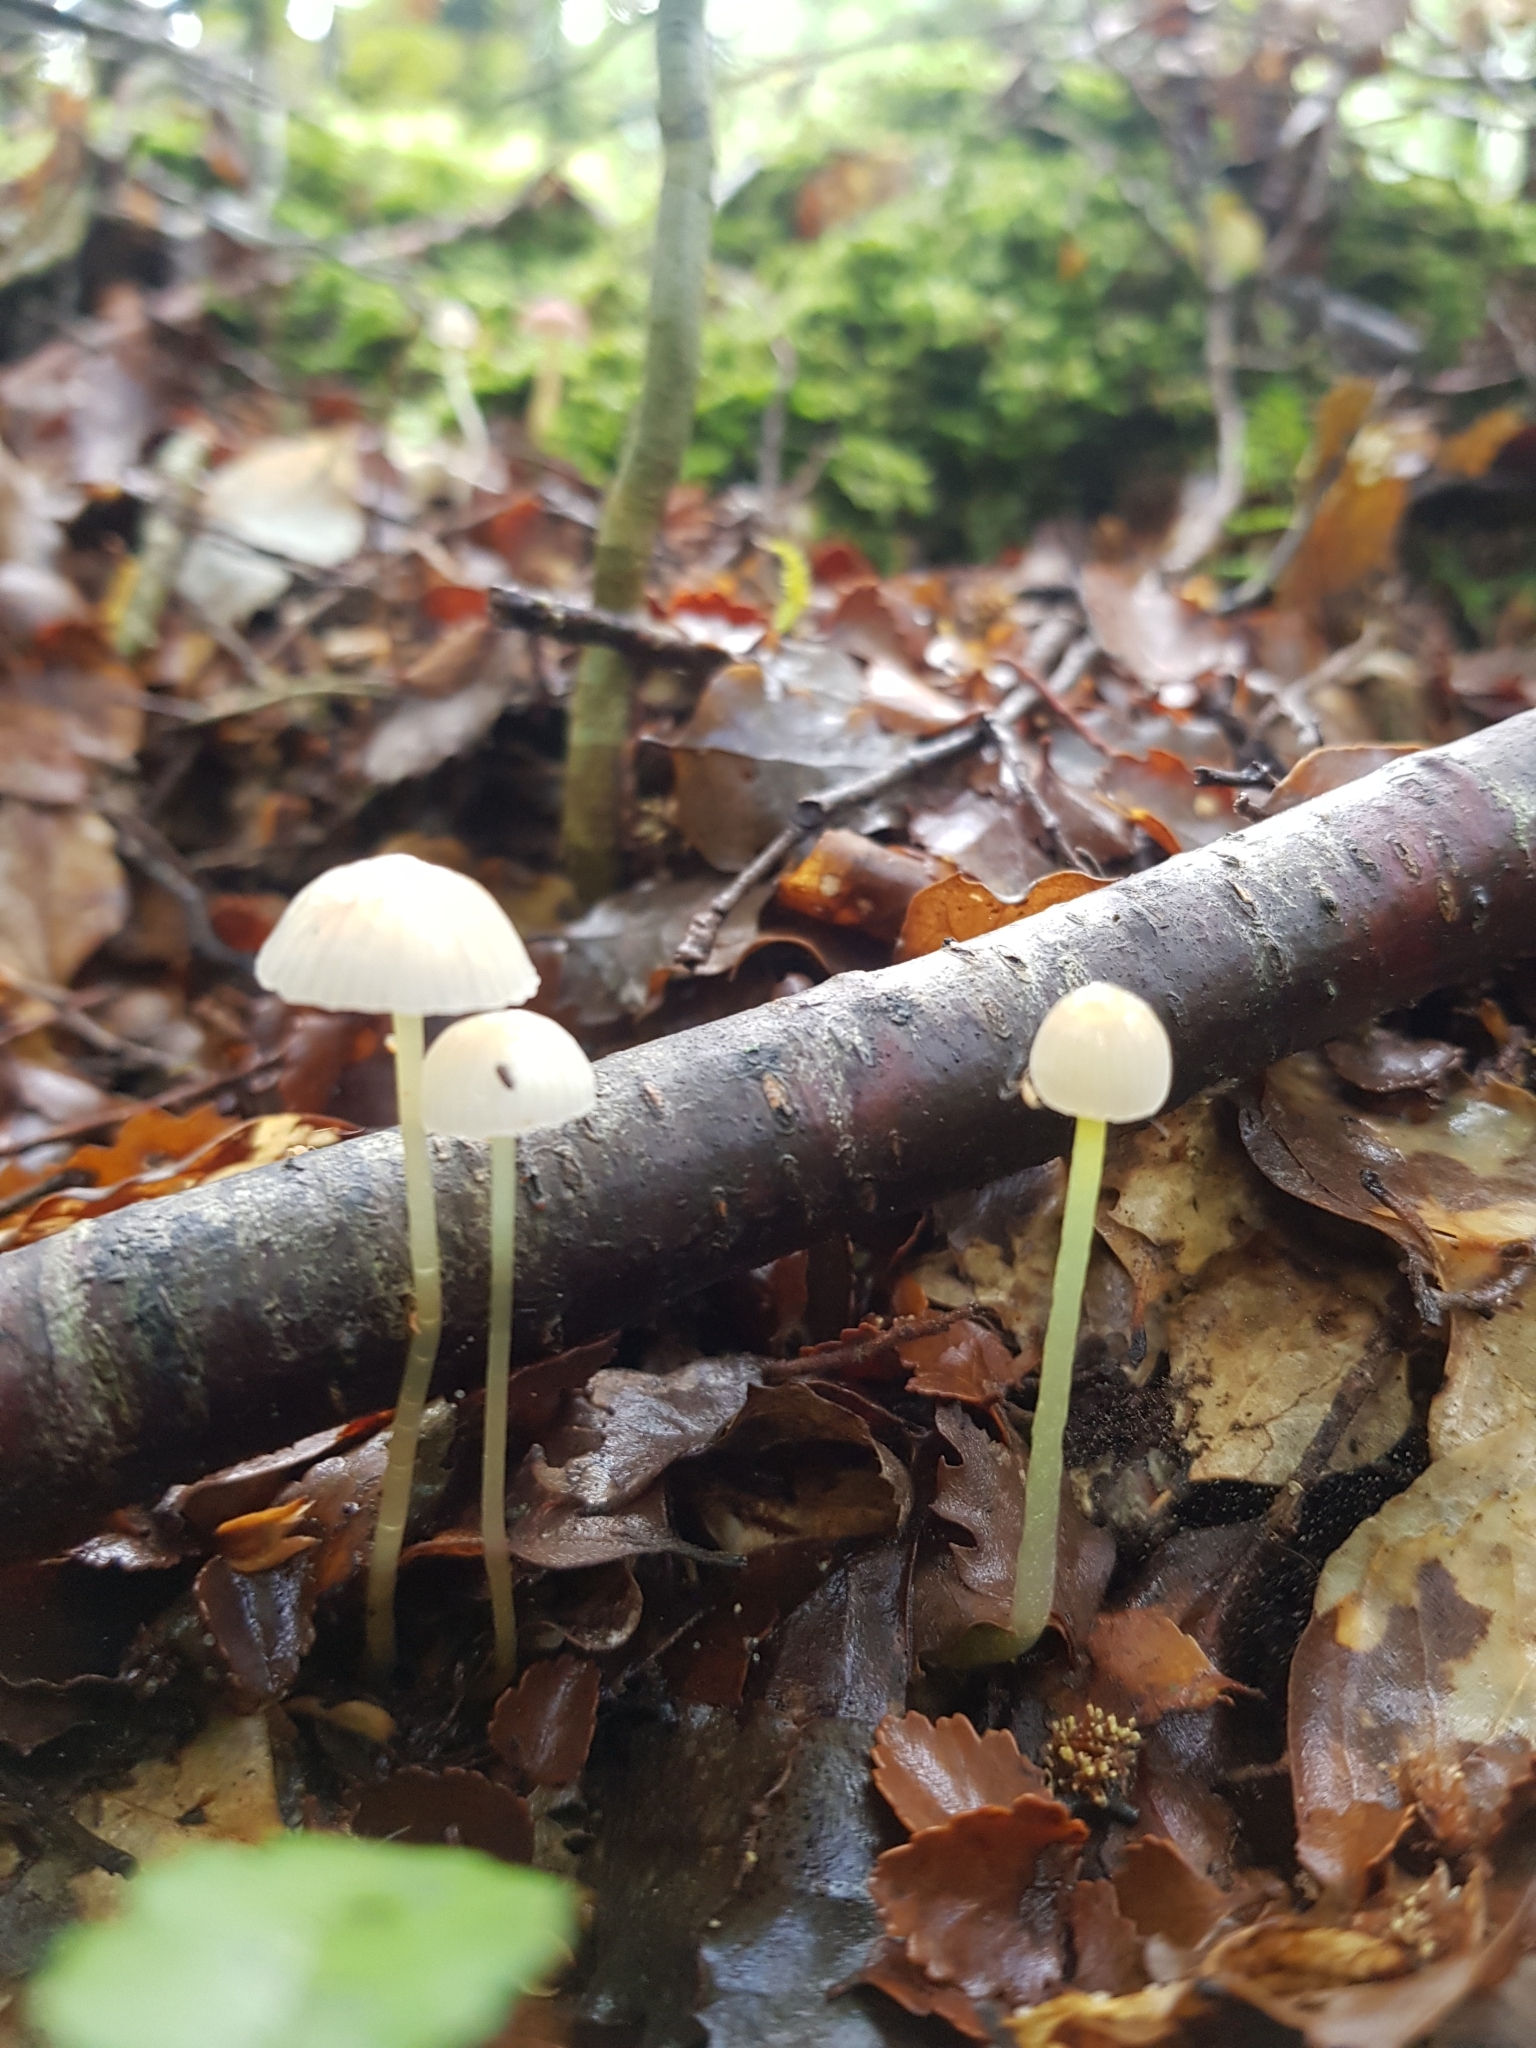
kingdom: Fungi
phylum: Basidiomycota
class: Agaricomycetes
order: Agaricales
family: Mycenaceae
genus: Mycena
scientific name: Mycena subviscosa
